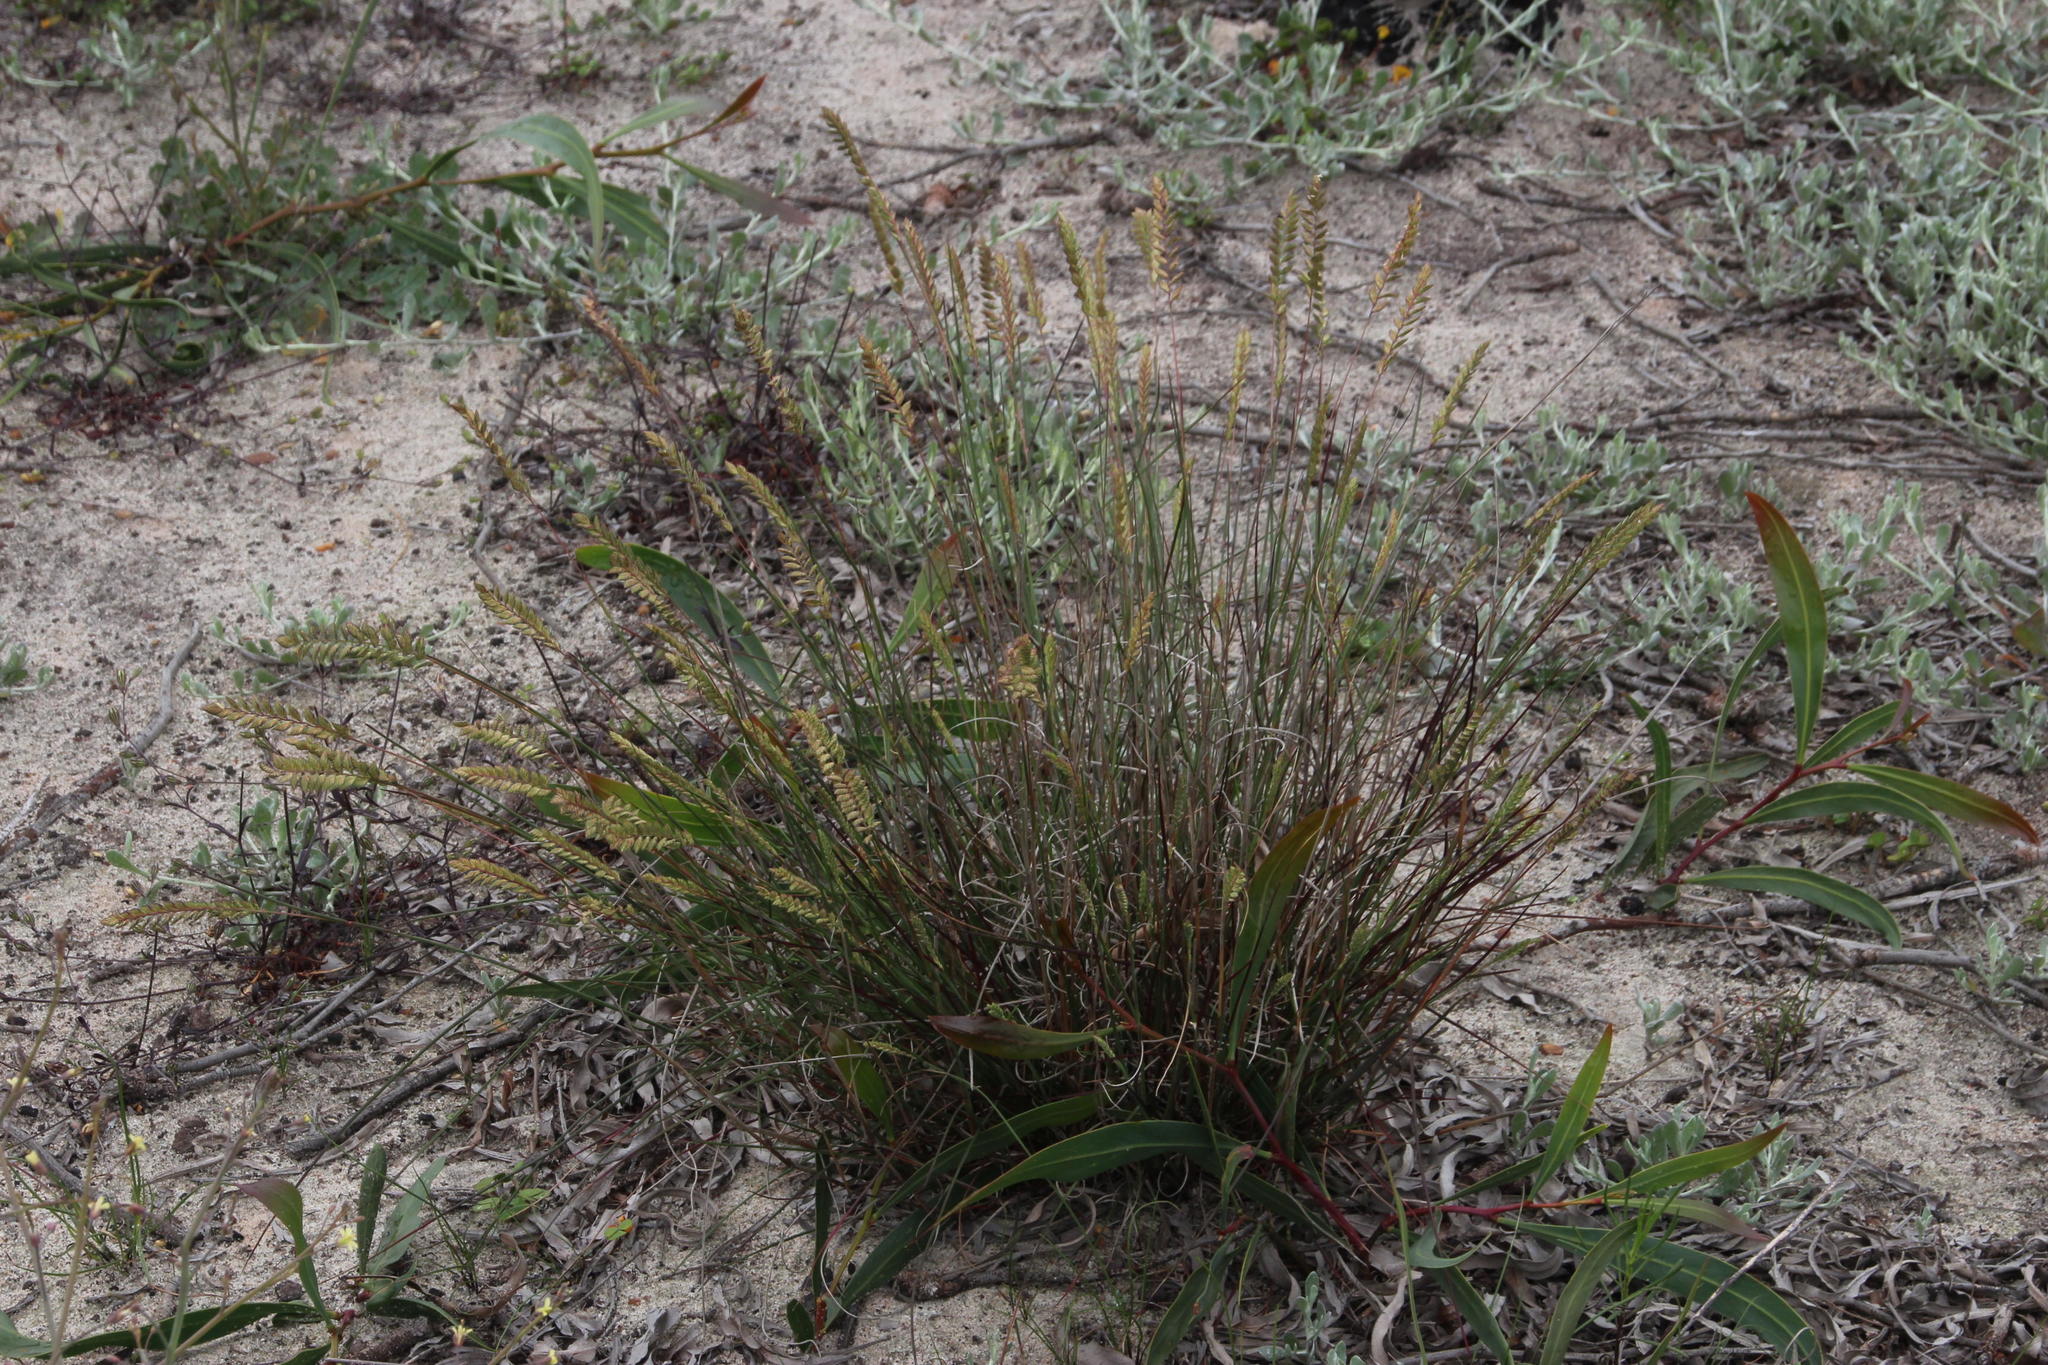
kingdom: Plantae
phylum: Tracheophyta
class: Liliopsida
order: Poales
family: Poaceae
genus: Tribolium
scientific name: Tribolium uniolae
